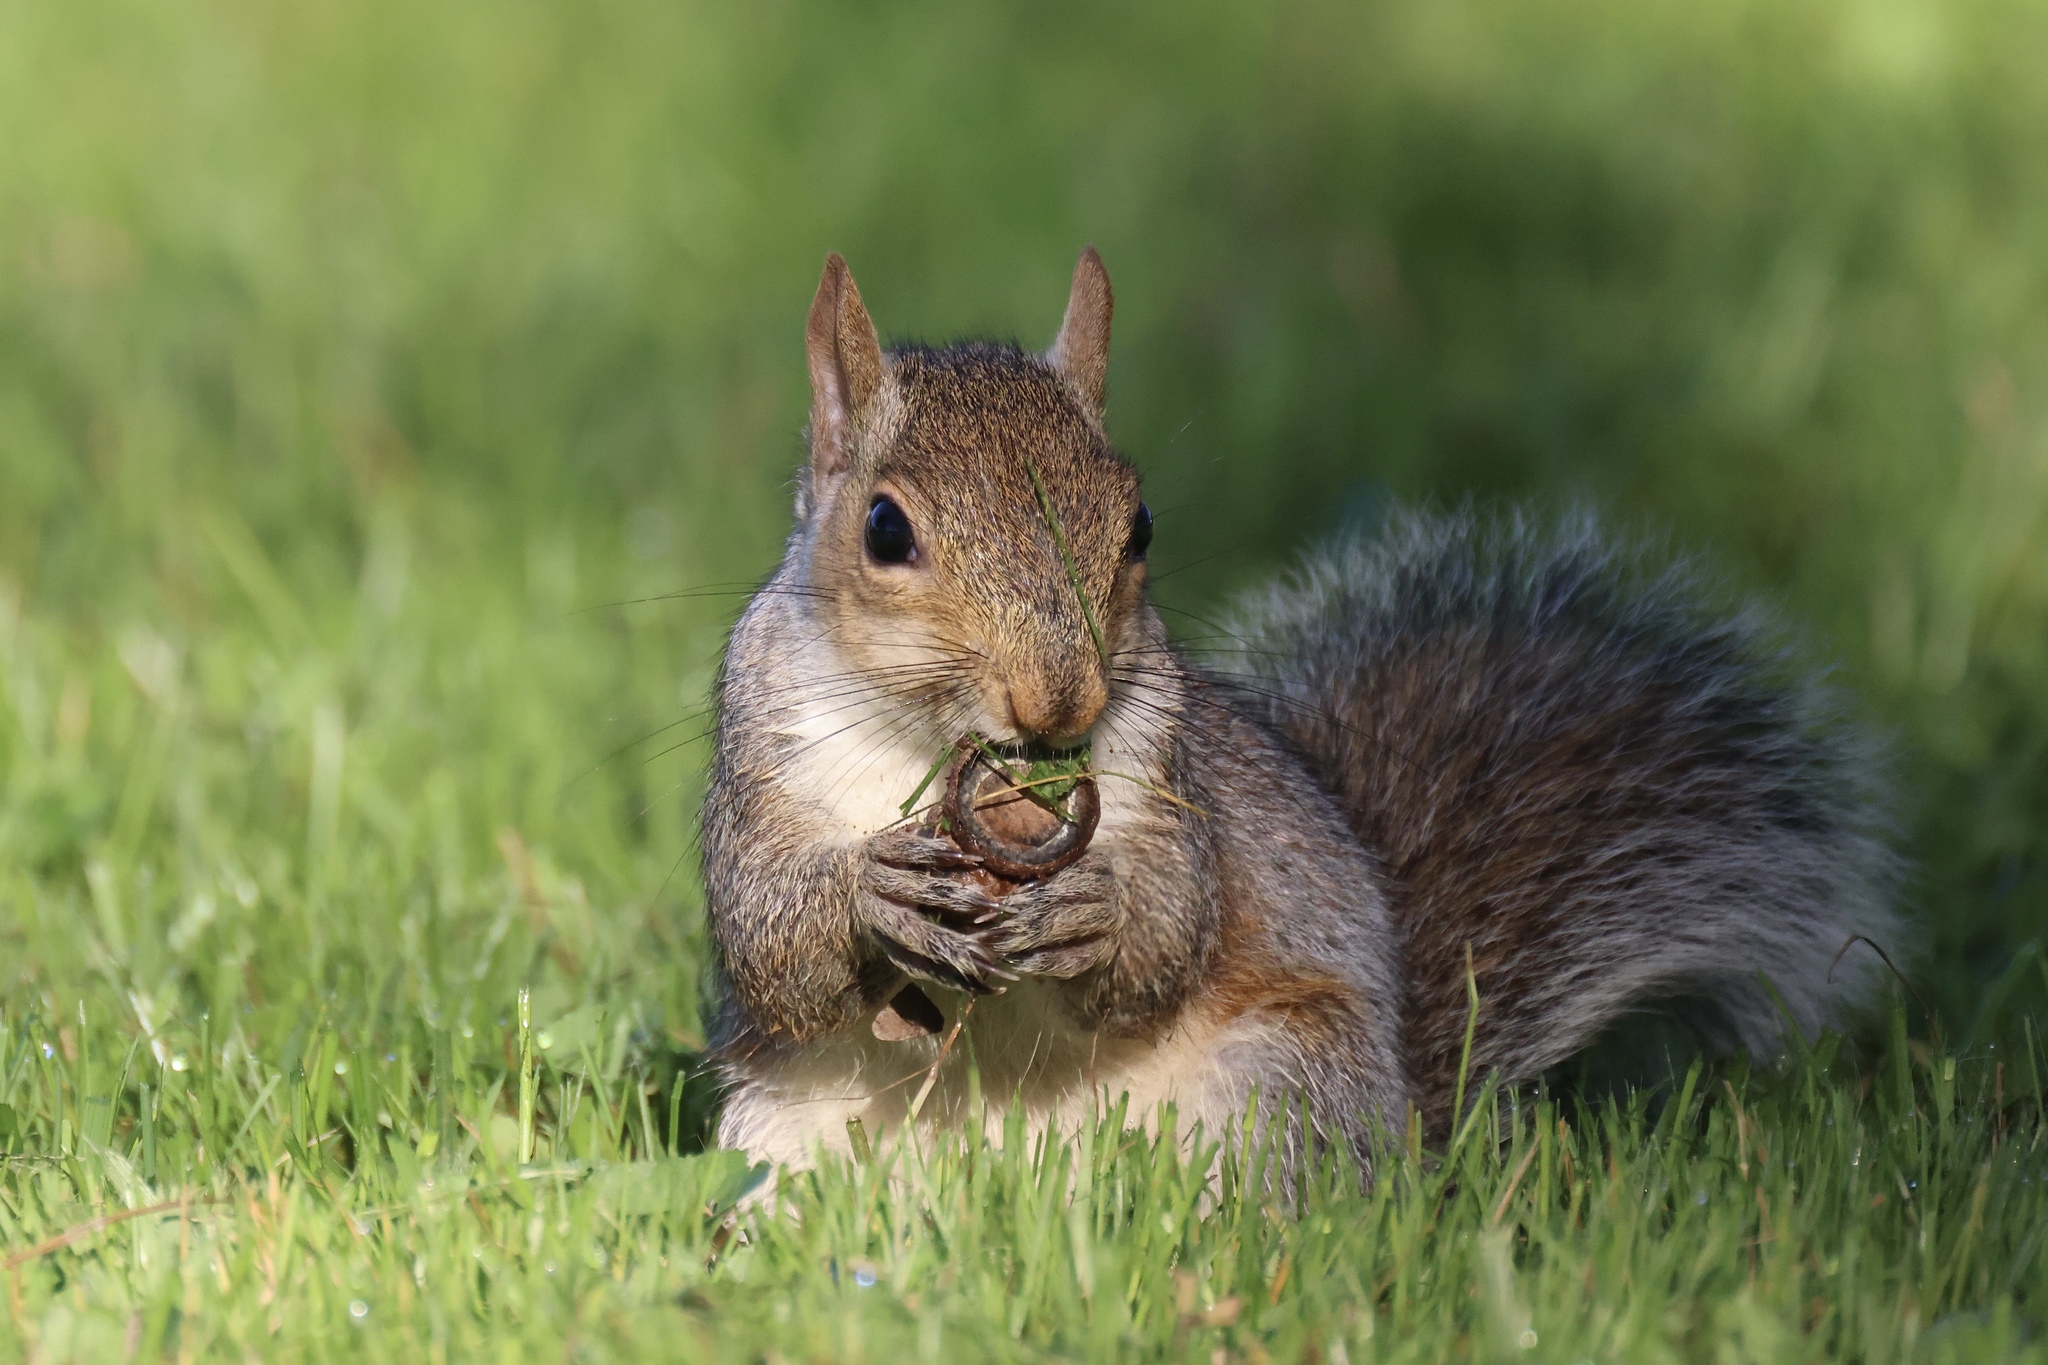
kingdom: Animalia
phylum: Chordata
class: Mammalia
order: Rodentia
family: Sciuridae
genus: Sciurus
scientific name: Sciurus carolinensis
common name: Eastern gray squirrel
